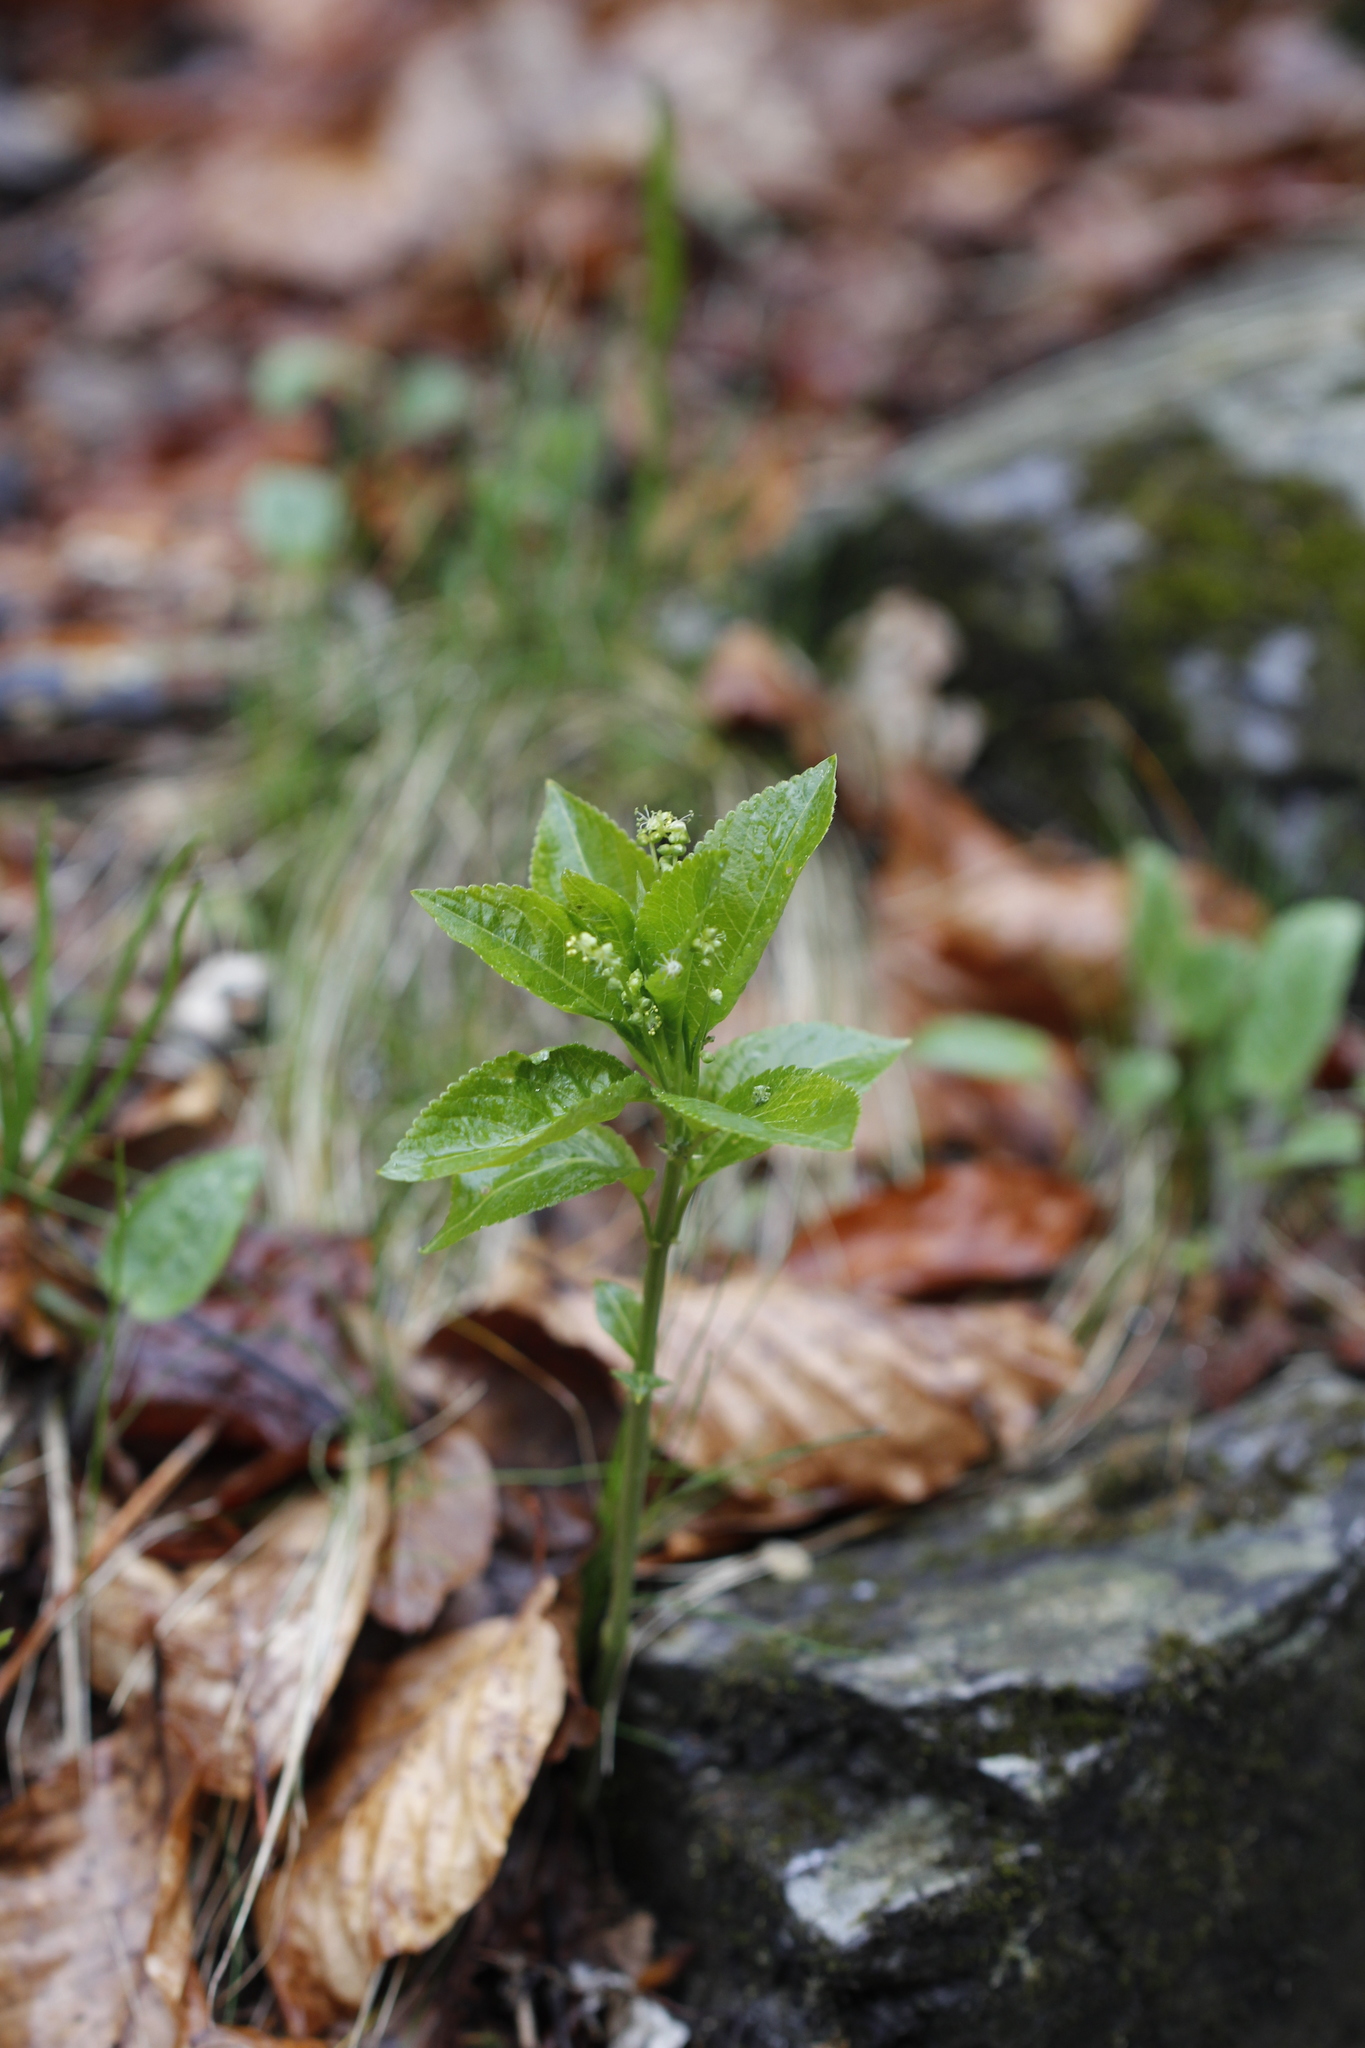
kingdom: Plantae
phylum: Tracheophyta
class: Magnoliopsida
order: Malpighiales
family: Euphorbiaceae
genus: Mercurialis
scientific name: Mercurialis perennis
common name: Dog mercury
